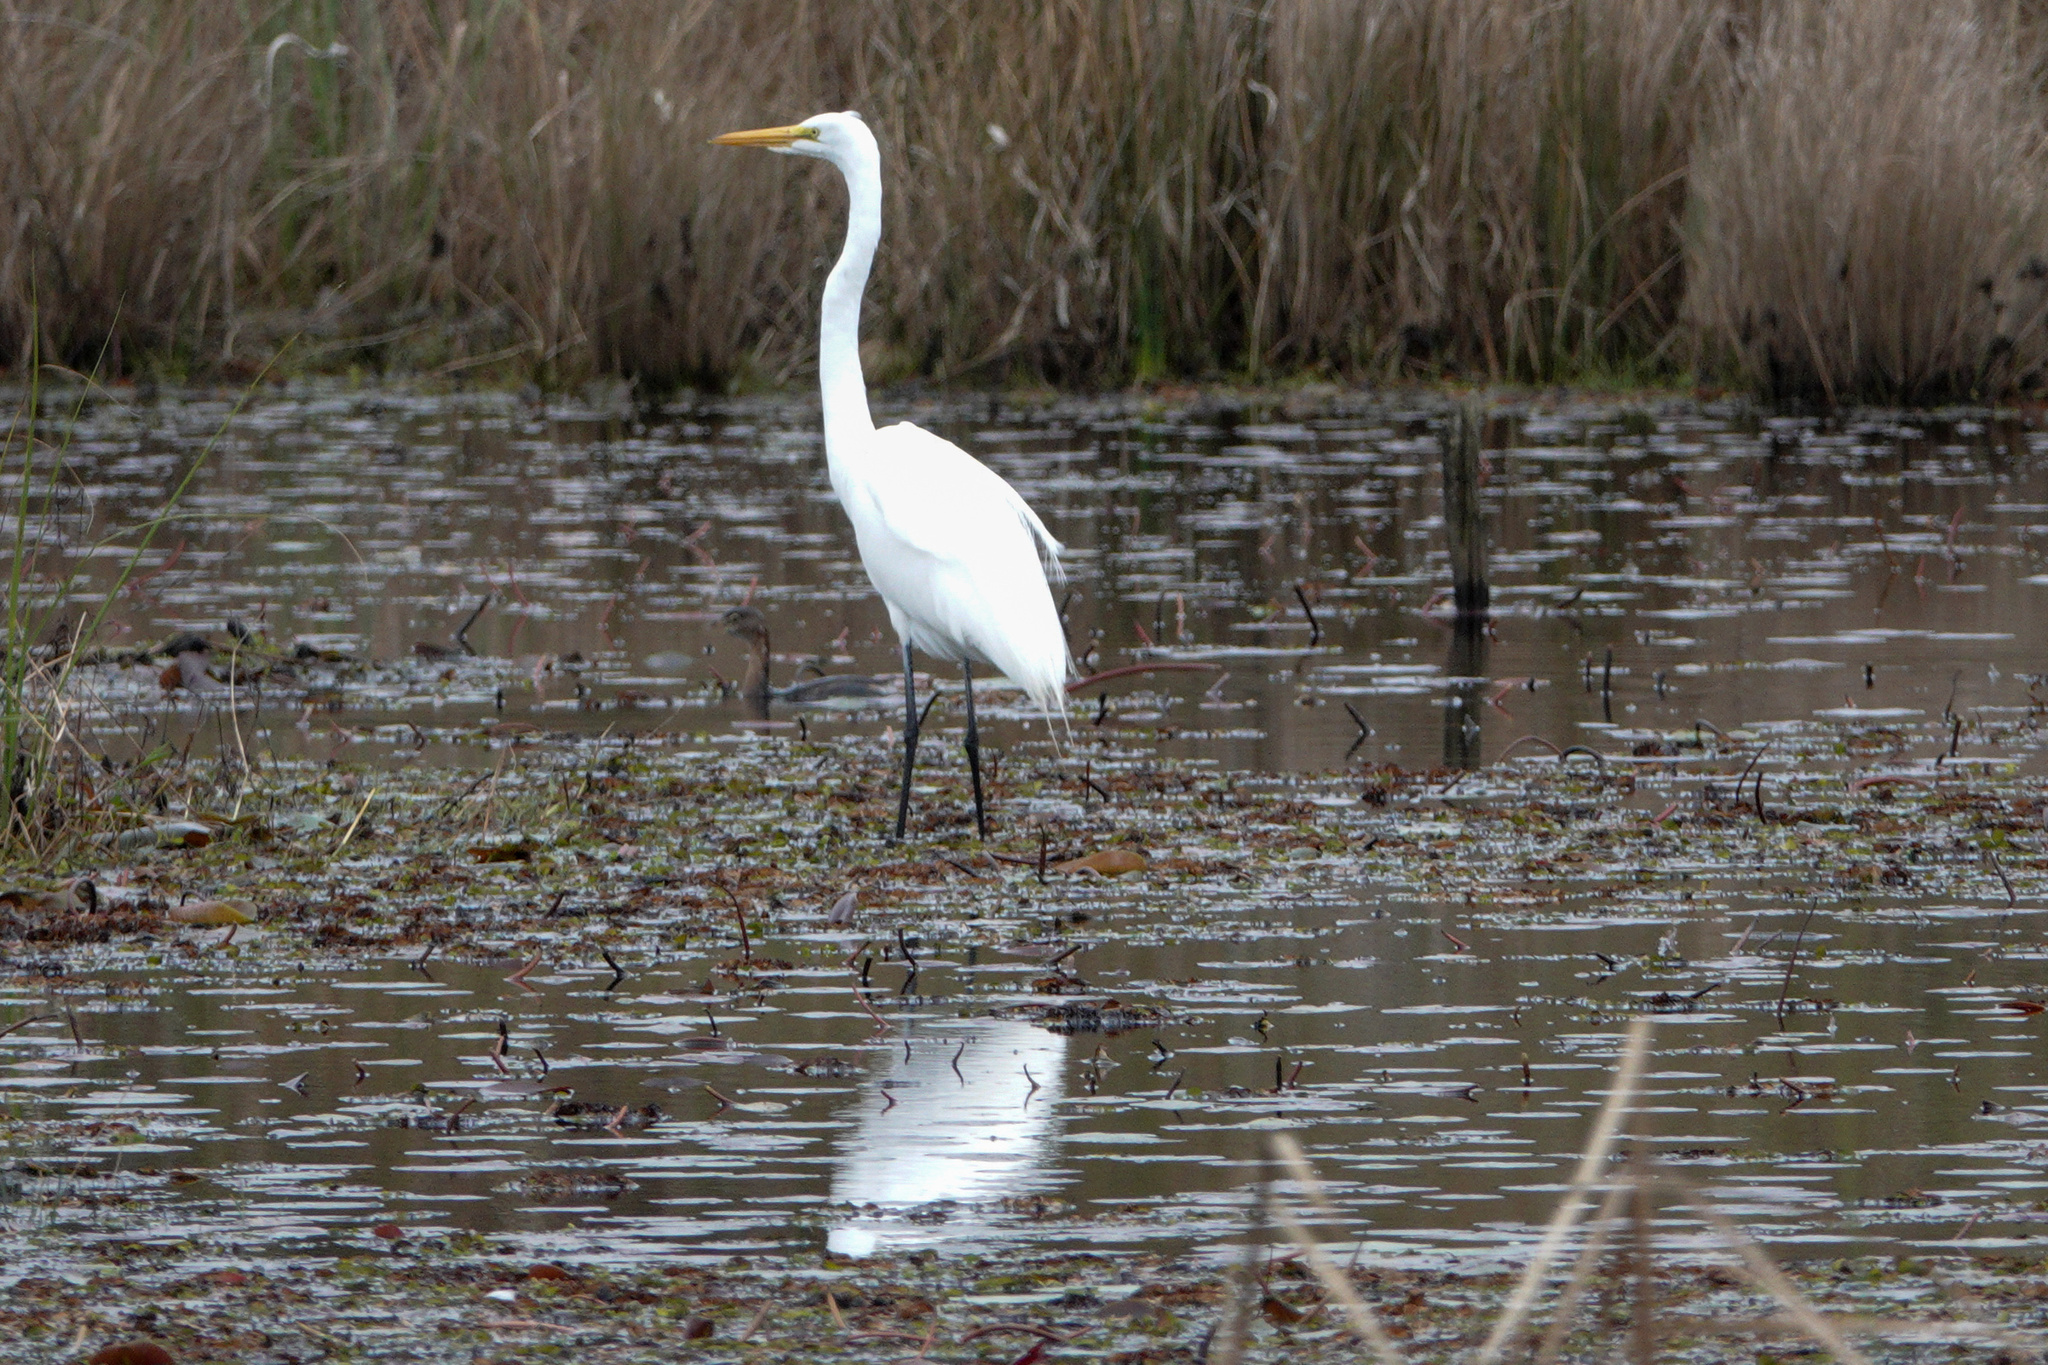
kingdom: Animalia
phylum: Chordata
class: Aves
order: Pelecaniformes
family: Ardeidae
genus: Ardea
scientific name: Ardea alba
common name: Great egret
